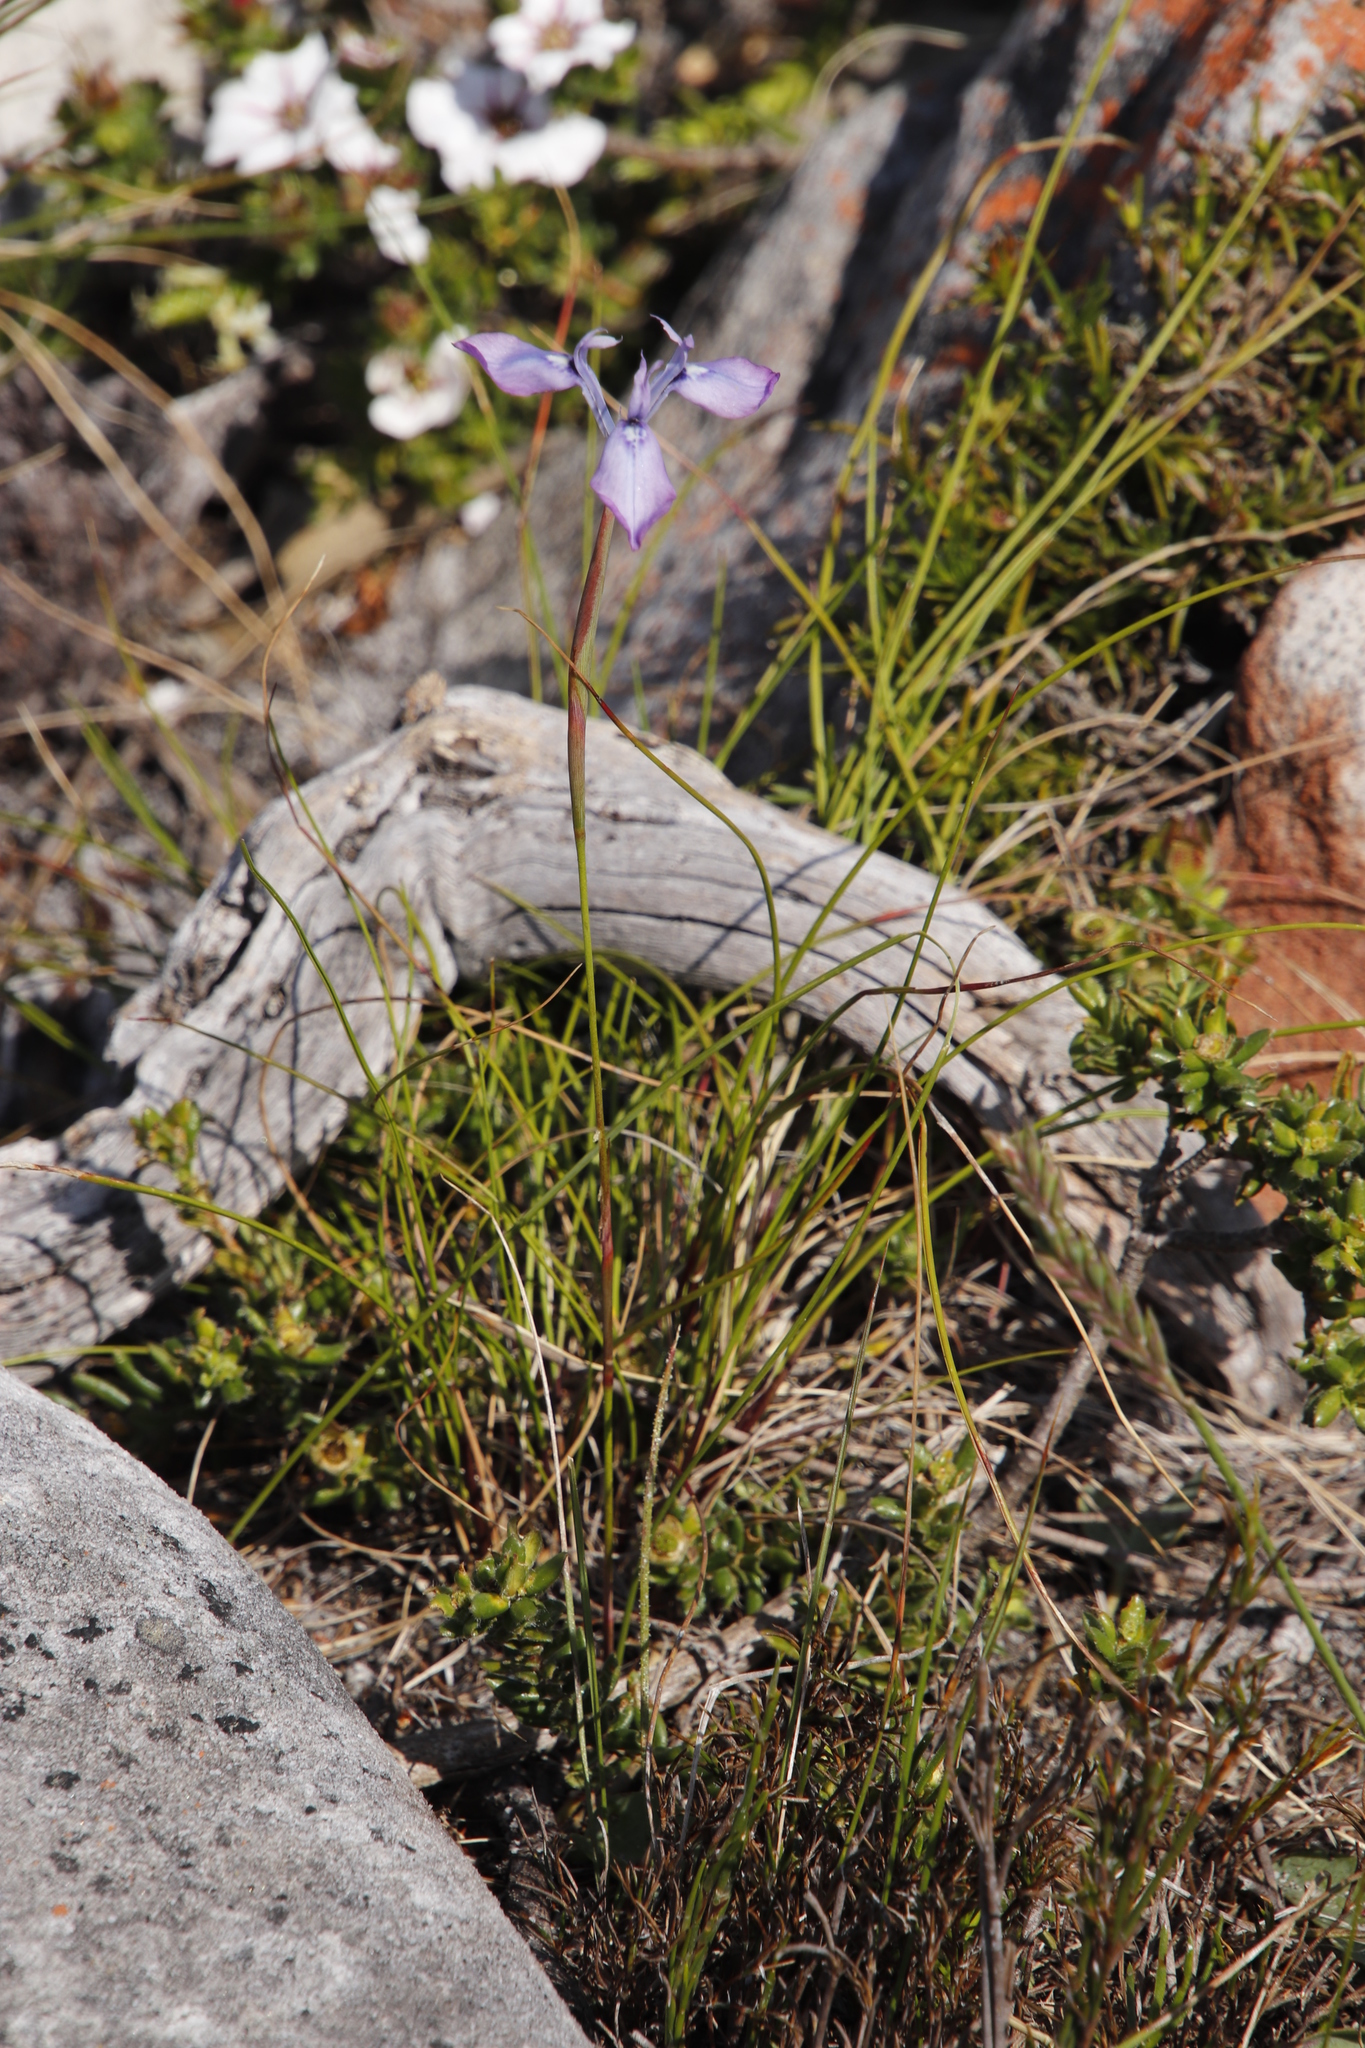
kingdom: Plantae
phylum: Tracheophyta
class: Liliopsida
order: Asparagales
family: Iridaceae
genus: Moraea
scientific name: Moraea tripetala
